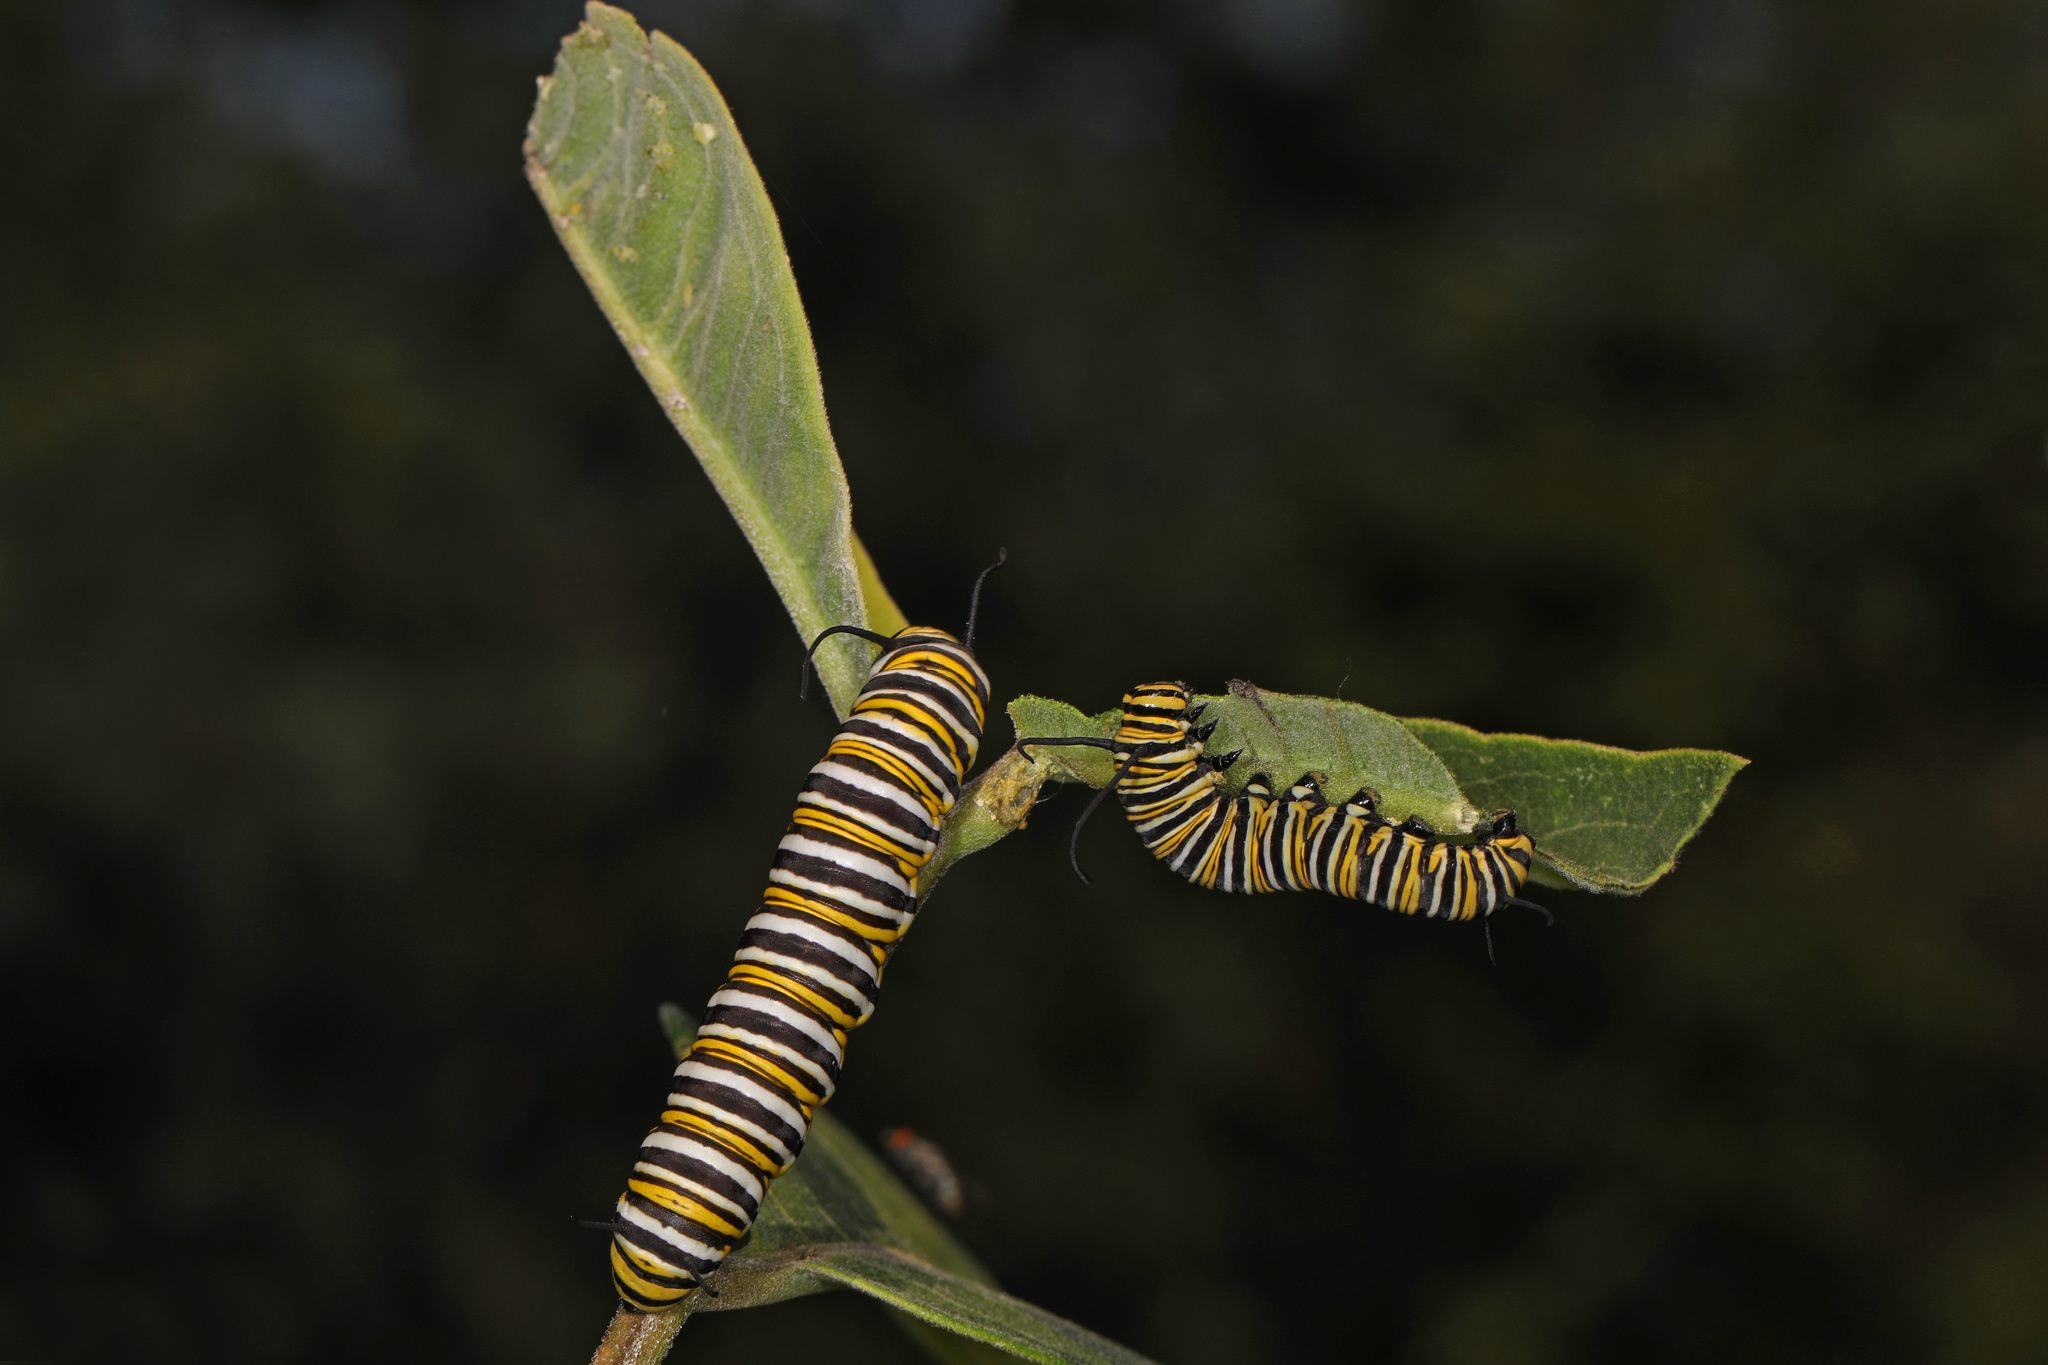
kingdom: Animalia
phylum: Arthropoda
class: Insecta
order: Lepidoptera
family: Nymphalidae
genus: Danaus
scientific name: Danaus plexippus
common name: Monarch
